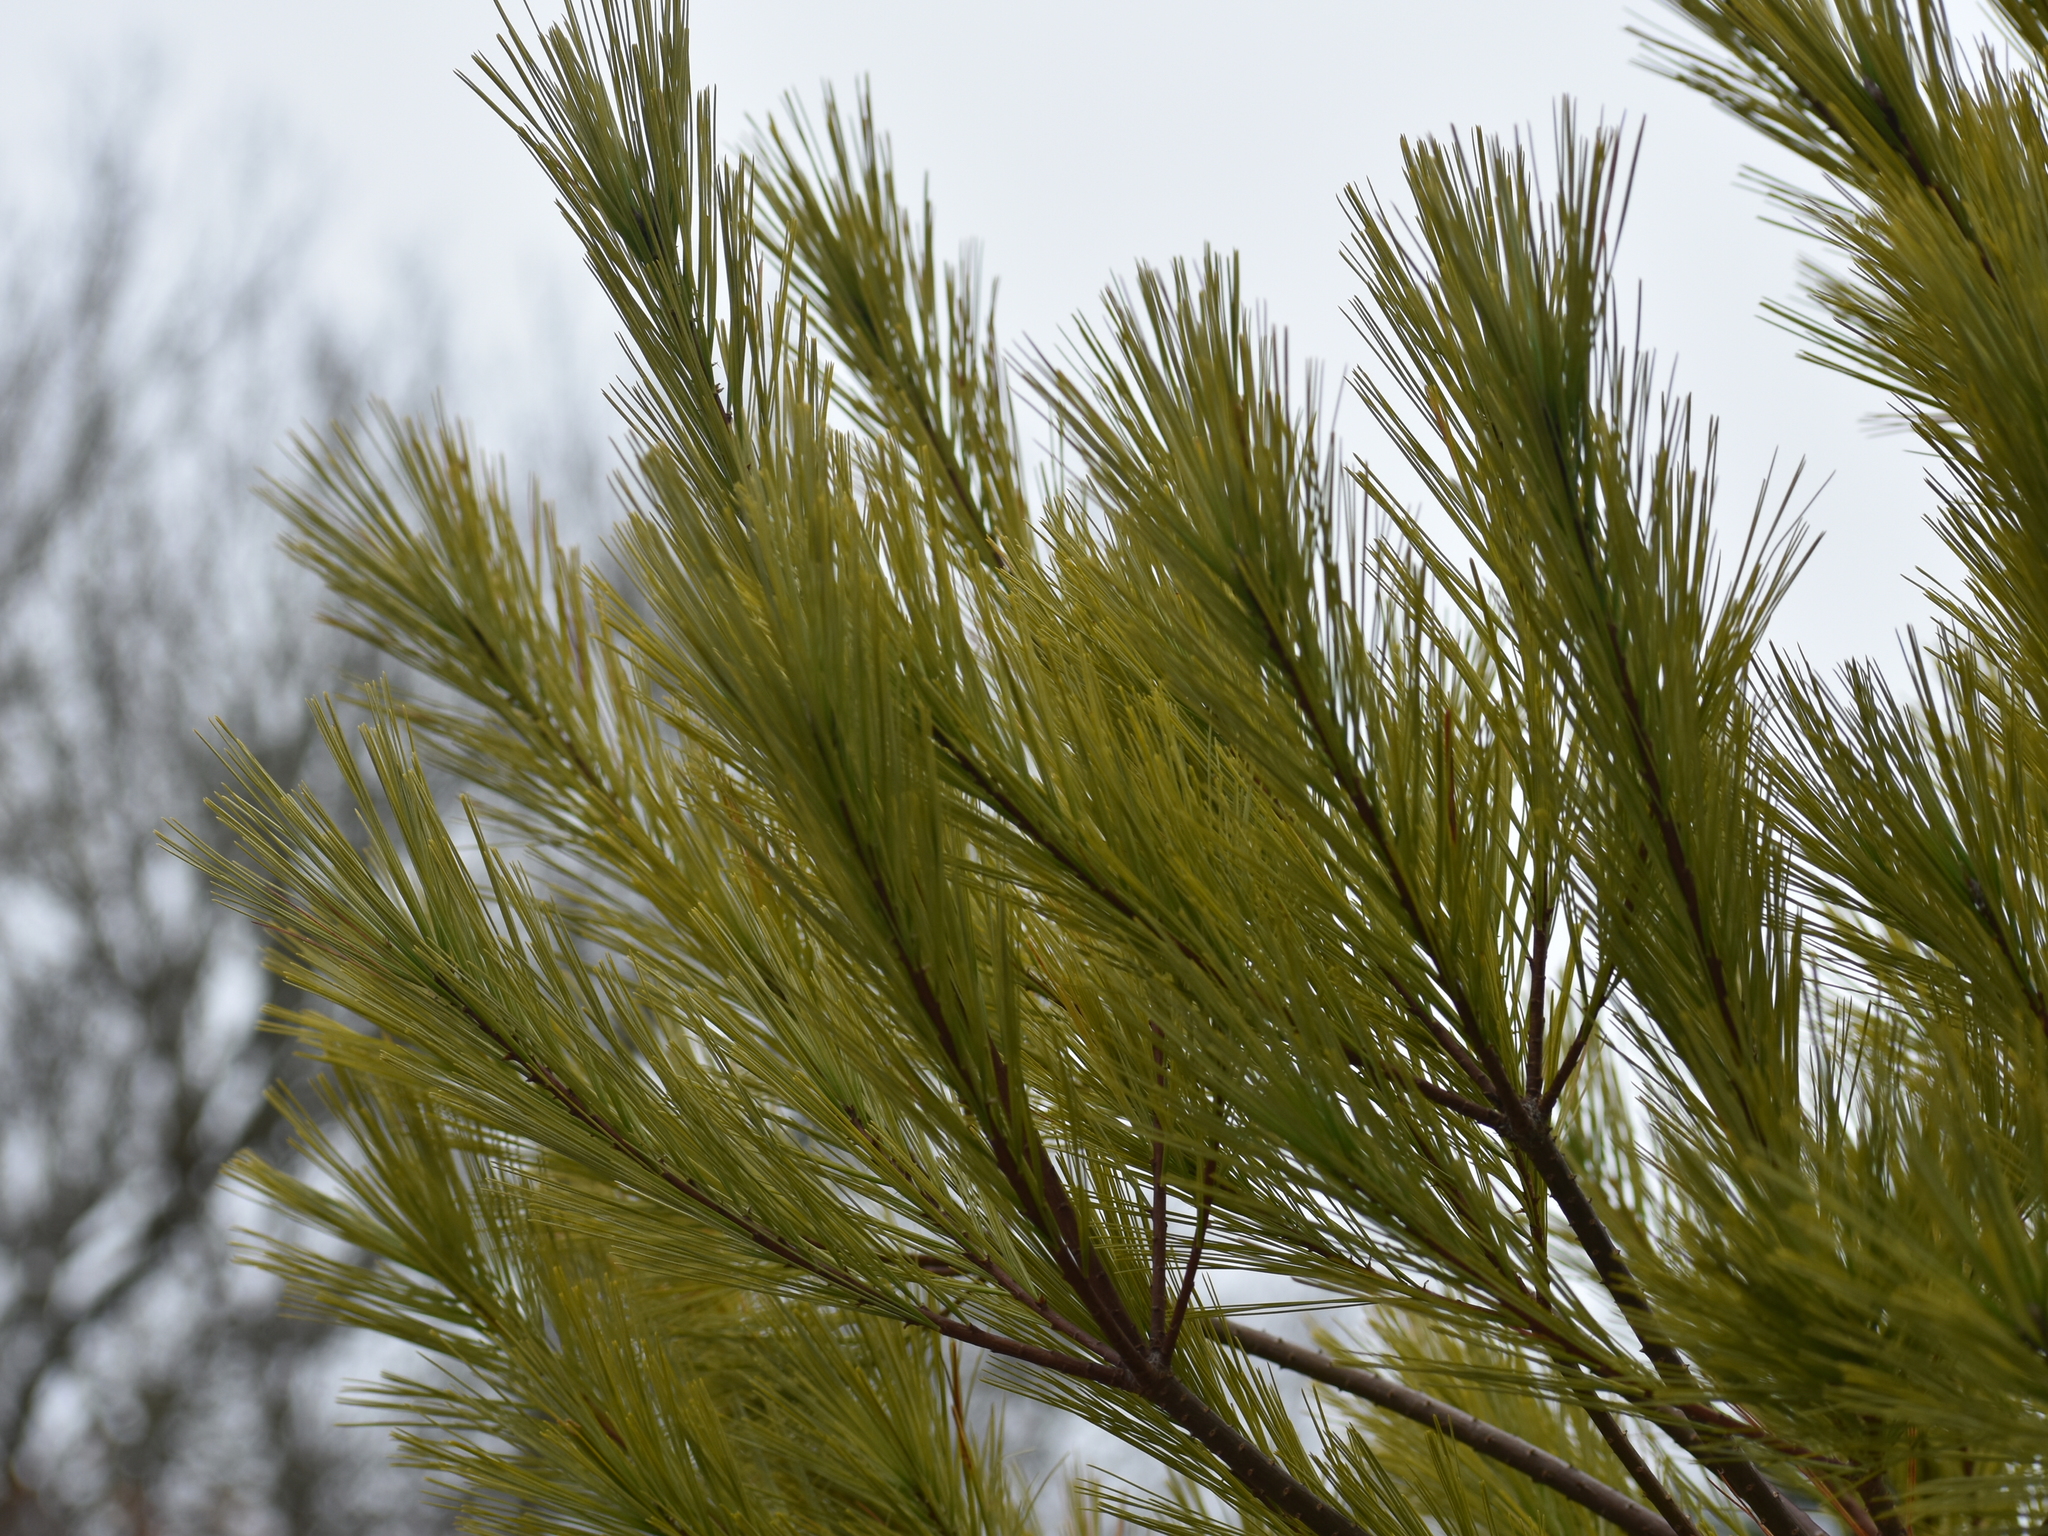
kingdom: Plantae
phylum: Tracheophyta
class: Pinopsida
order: Pinales
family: Pinaceae
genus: Pinus
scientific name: Pinus strobus
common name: Weymouth pine
